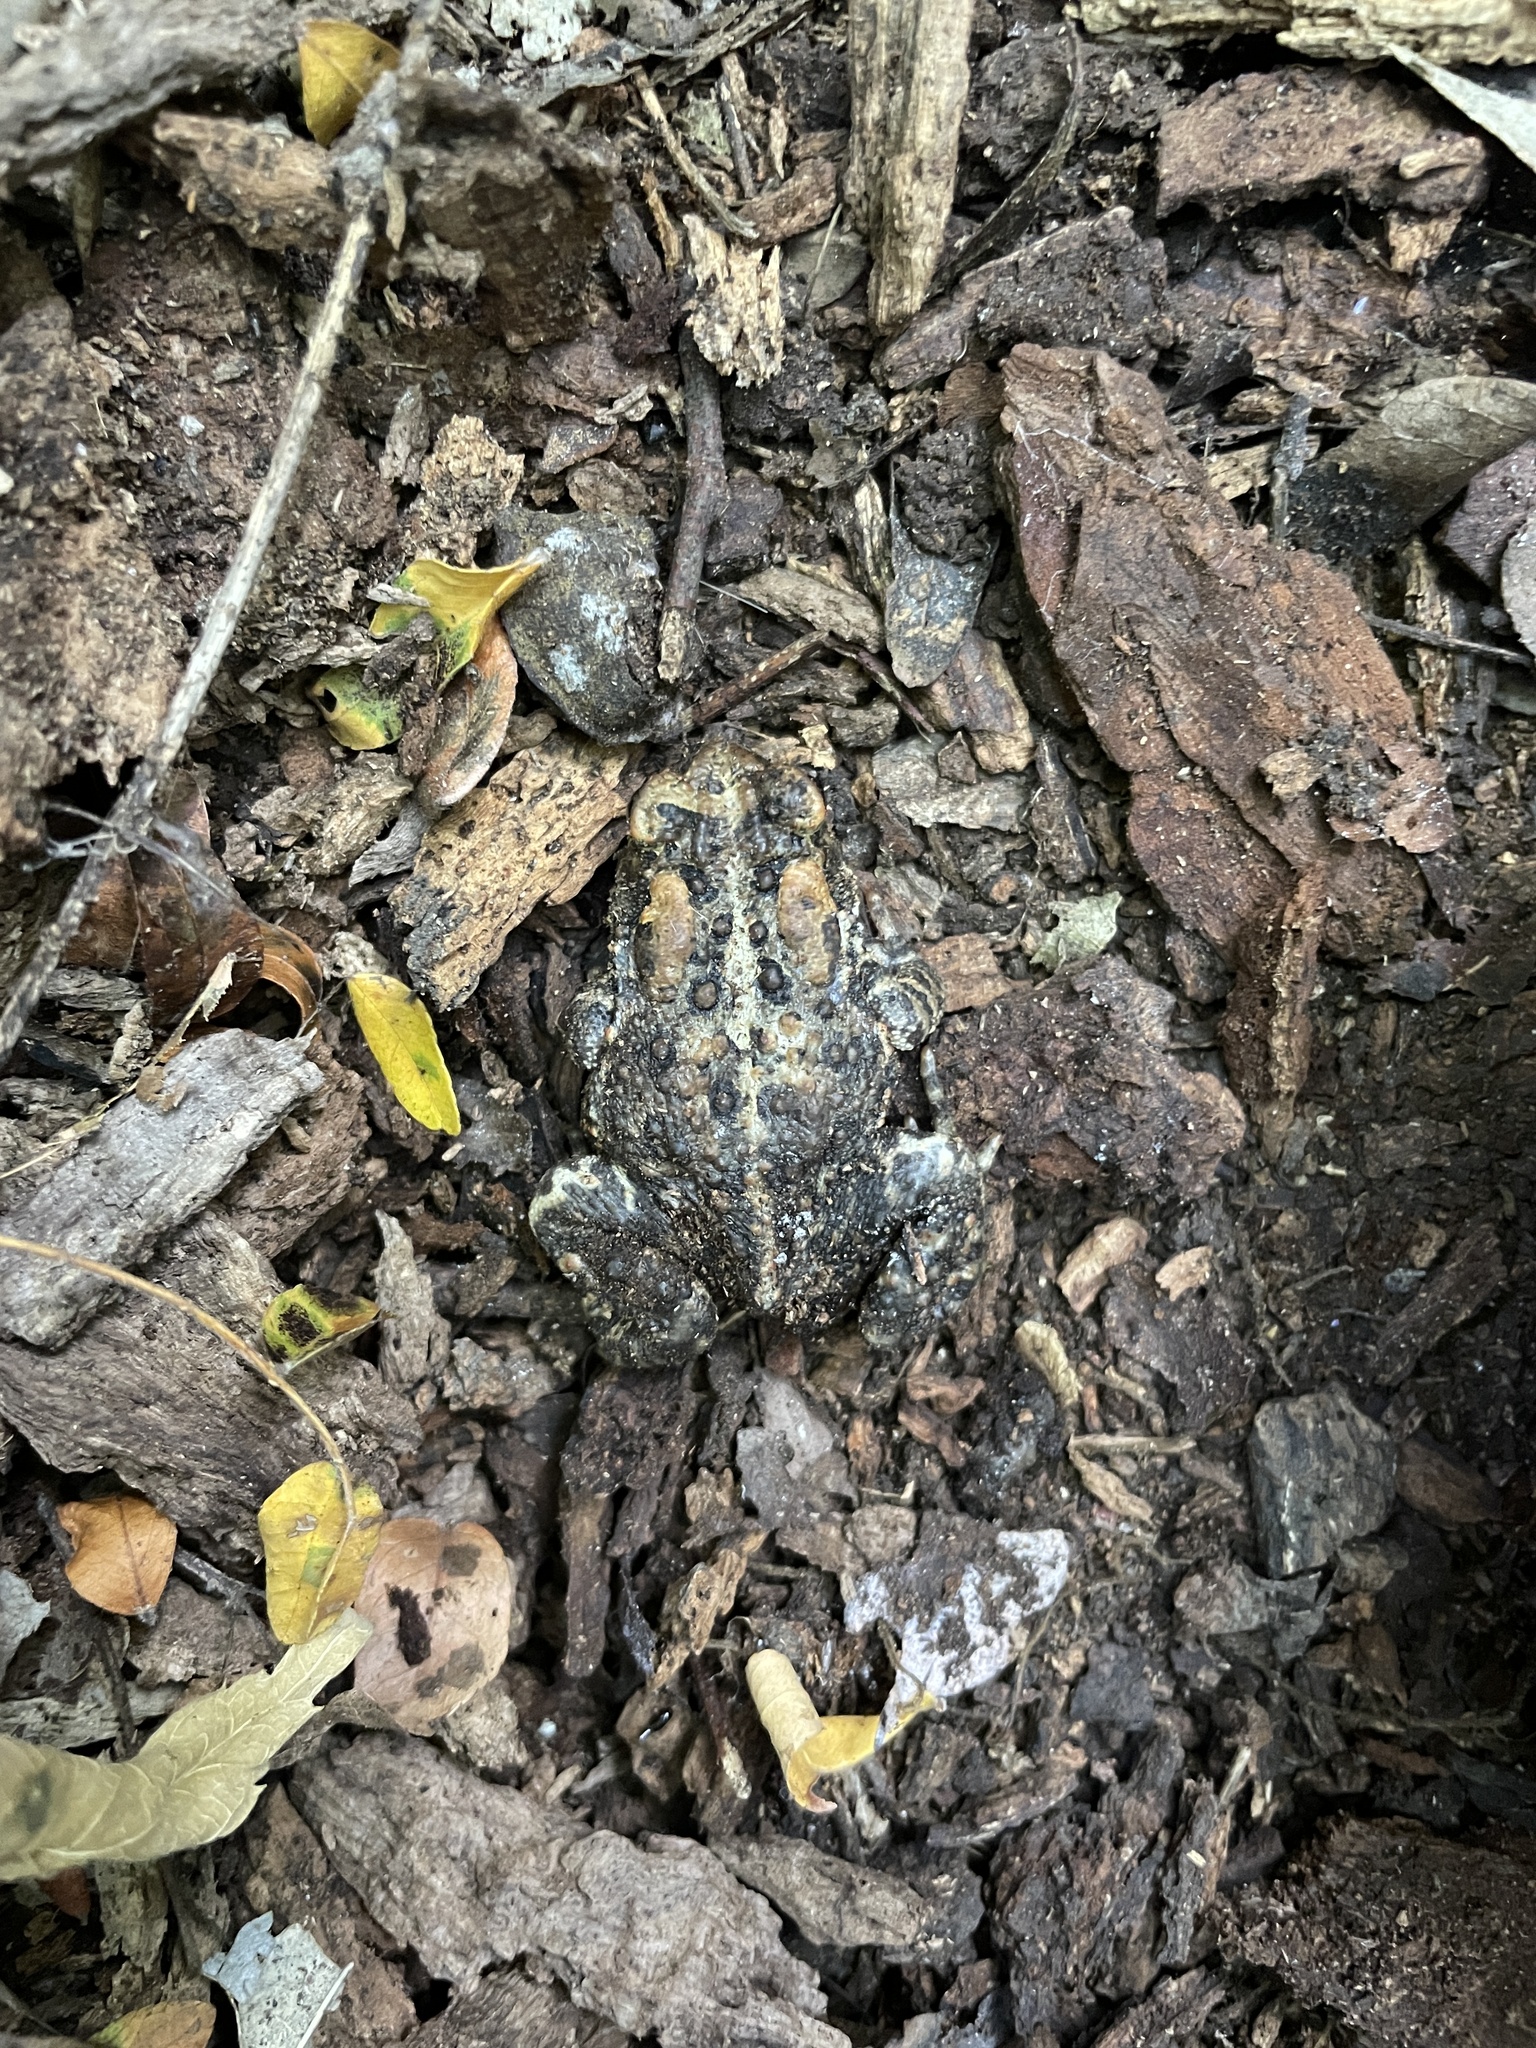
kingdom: Animalia
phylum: Chordata
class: Amphibia
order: Anura
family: Bufonidae
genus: Anaxyrus
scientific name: Anaxyrus americanus
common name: American toad
